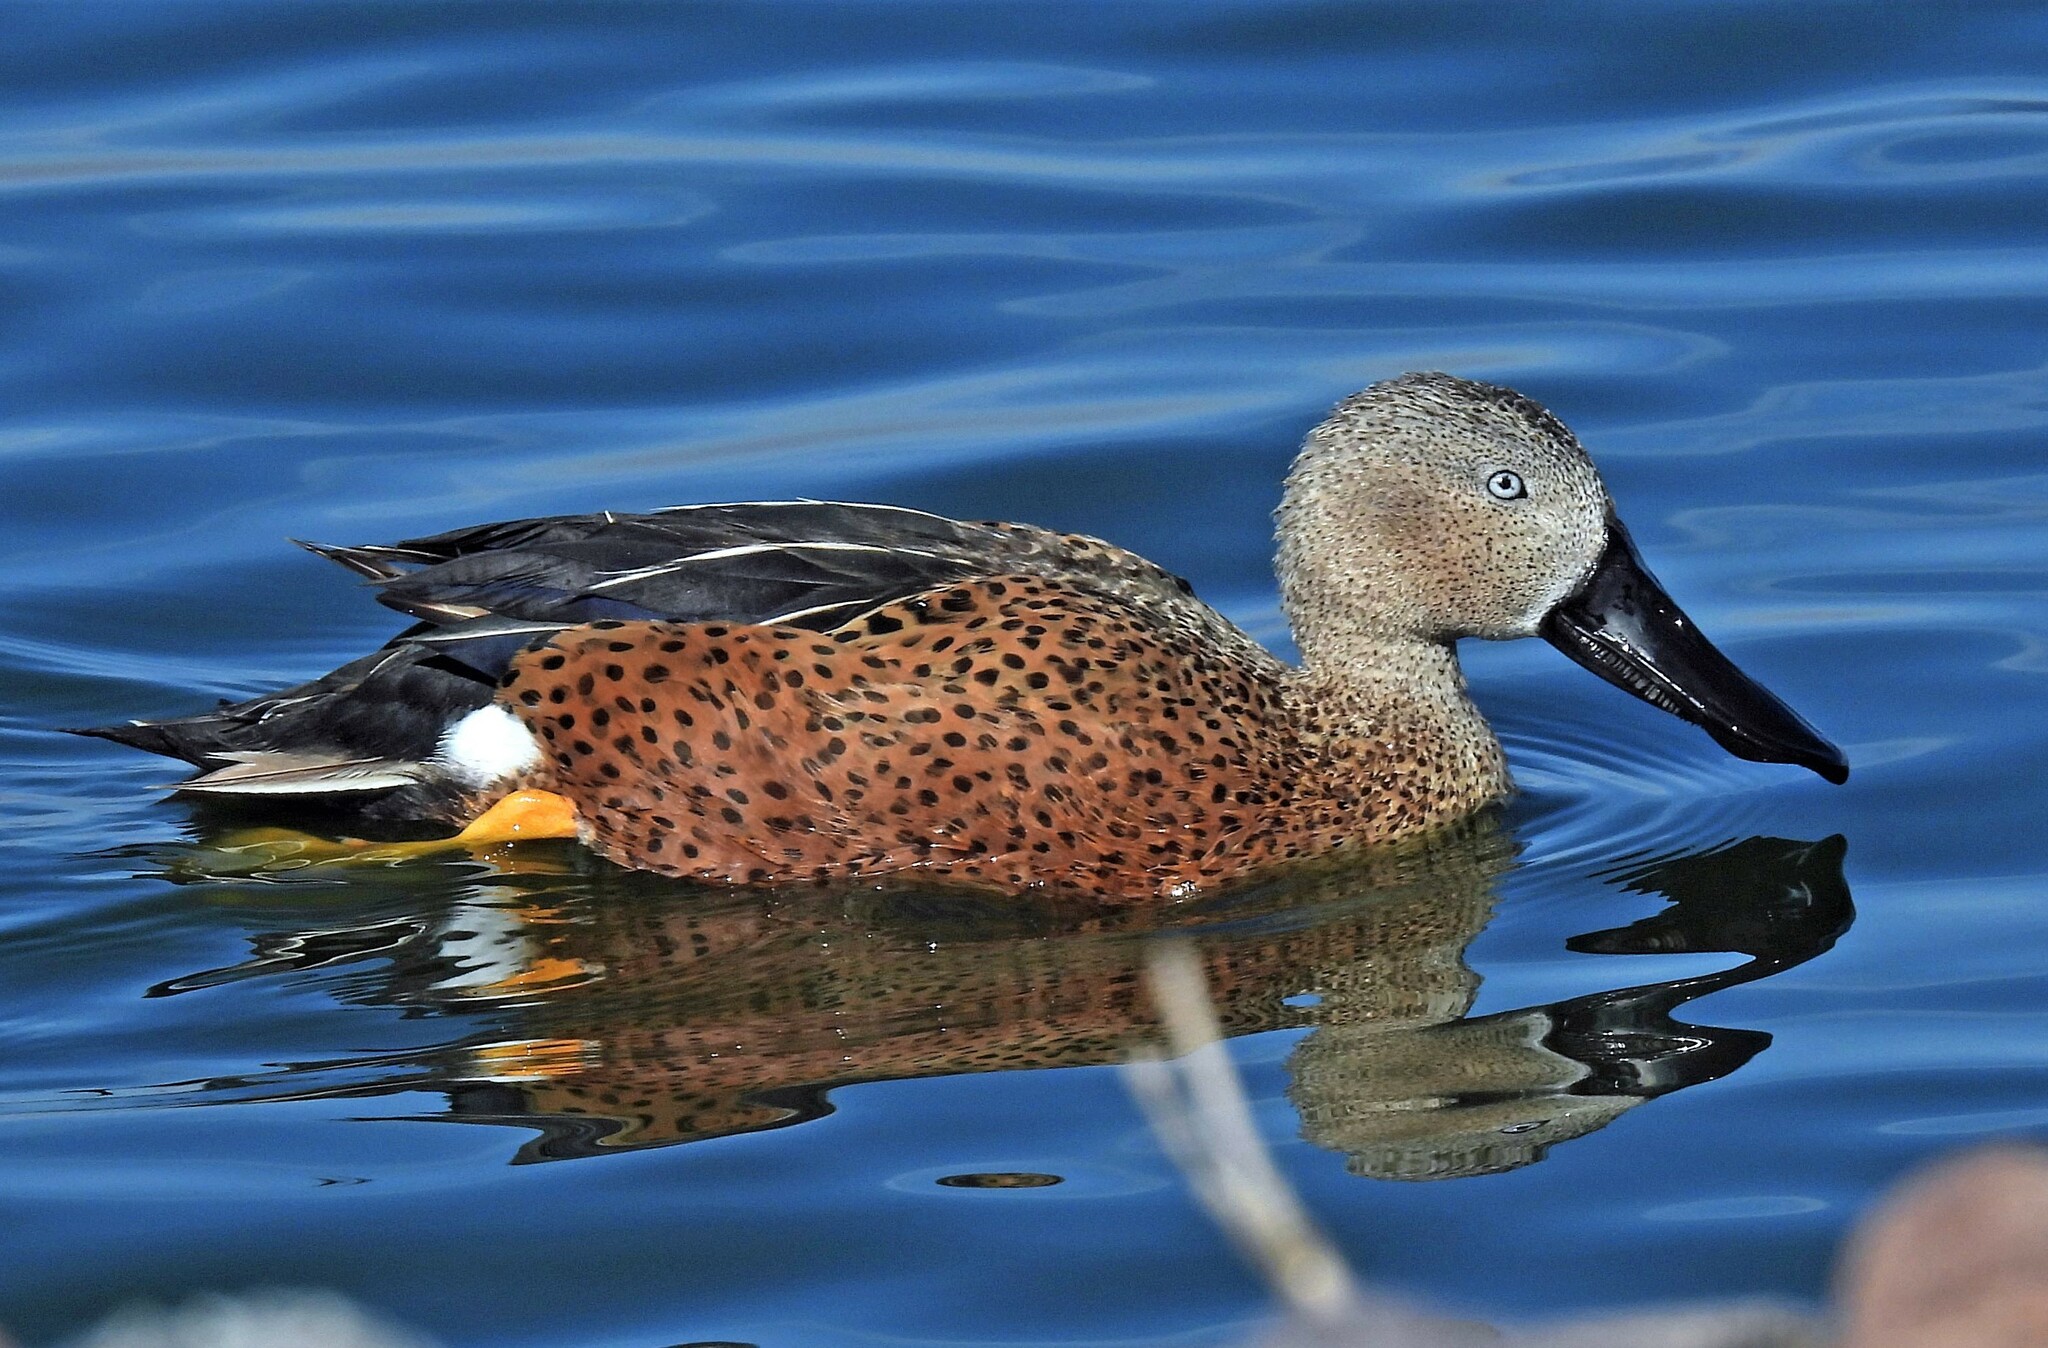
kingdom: Animalia
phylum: Chordata
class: Aves
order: Anseriformes
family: Anatidae
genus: Spatula
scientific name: Spatula platalea
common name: Red shoveler
